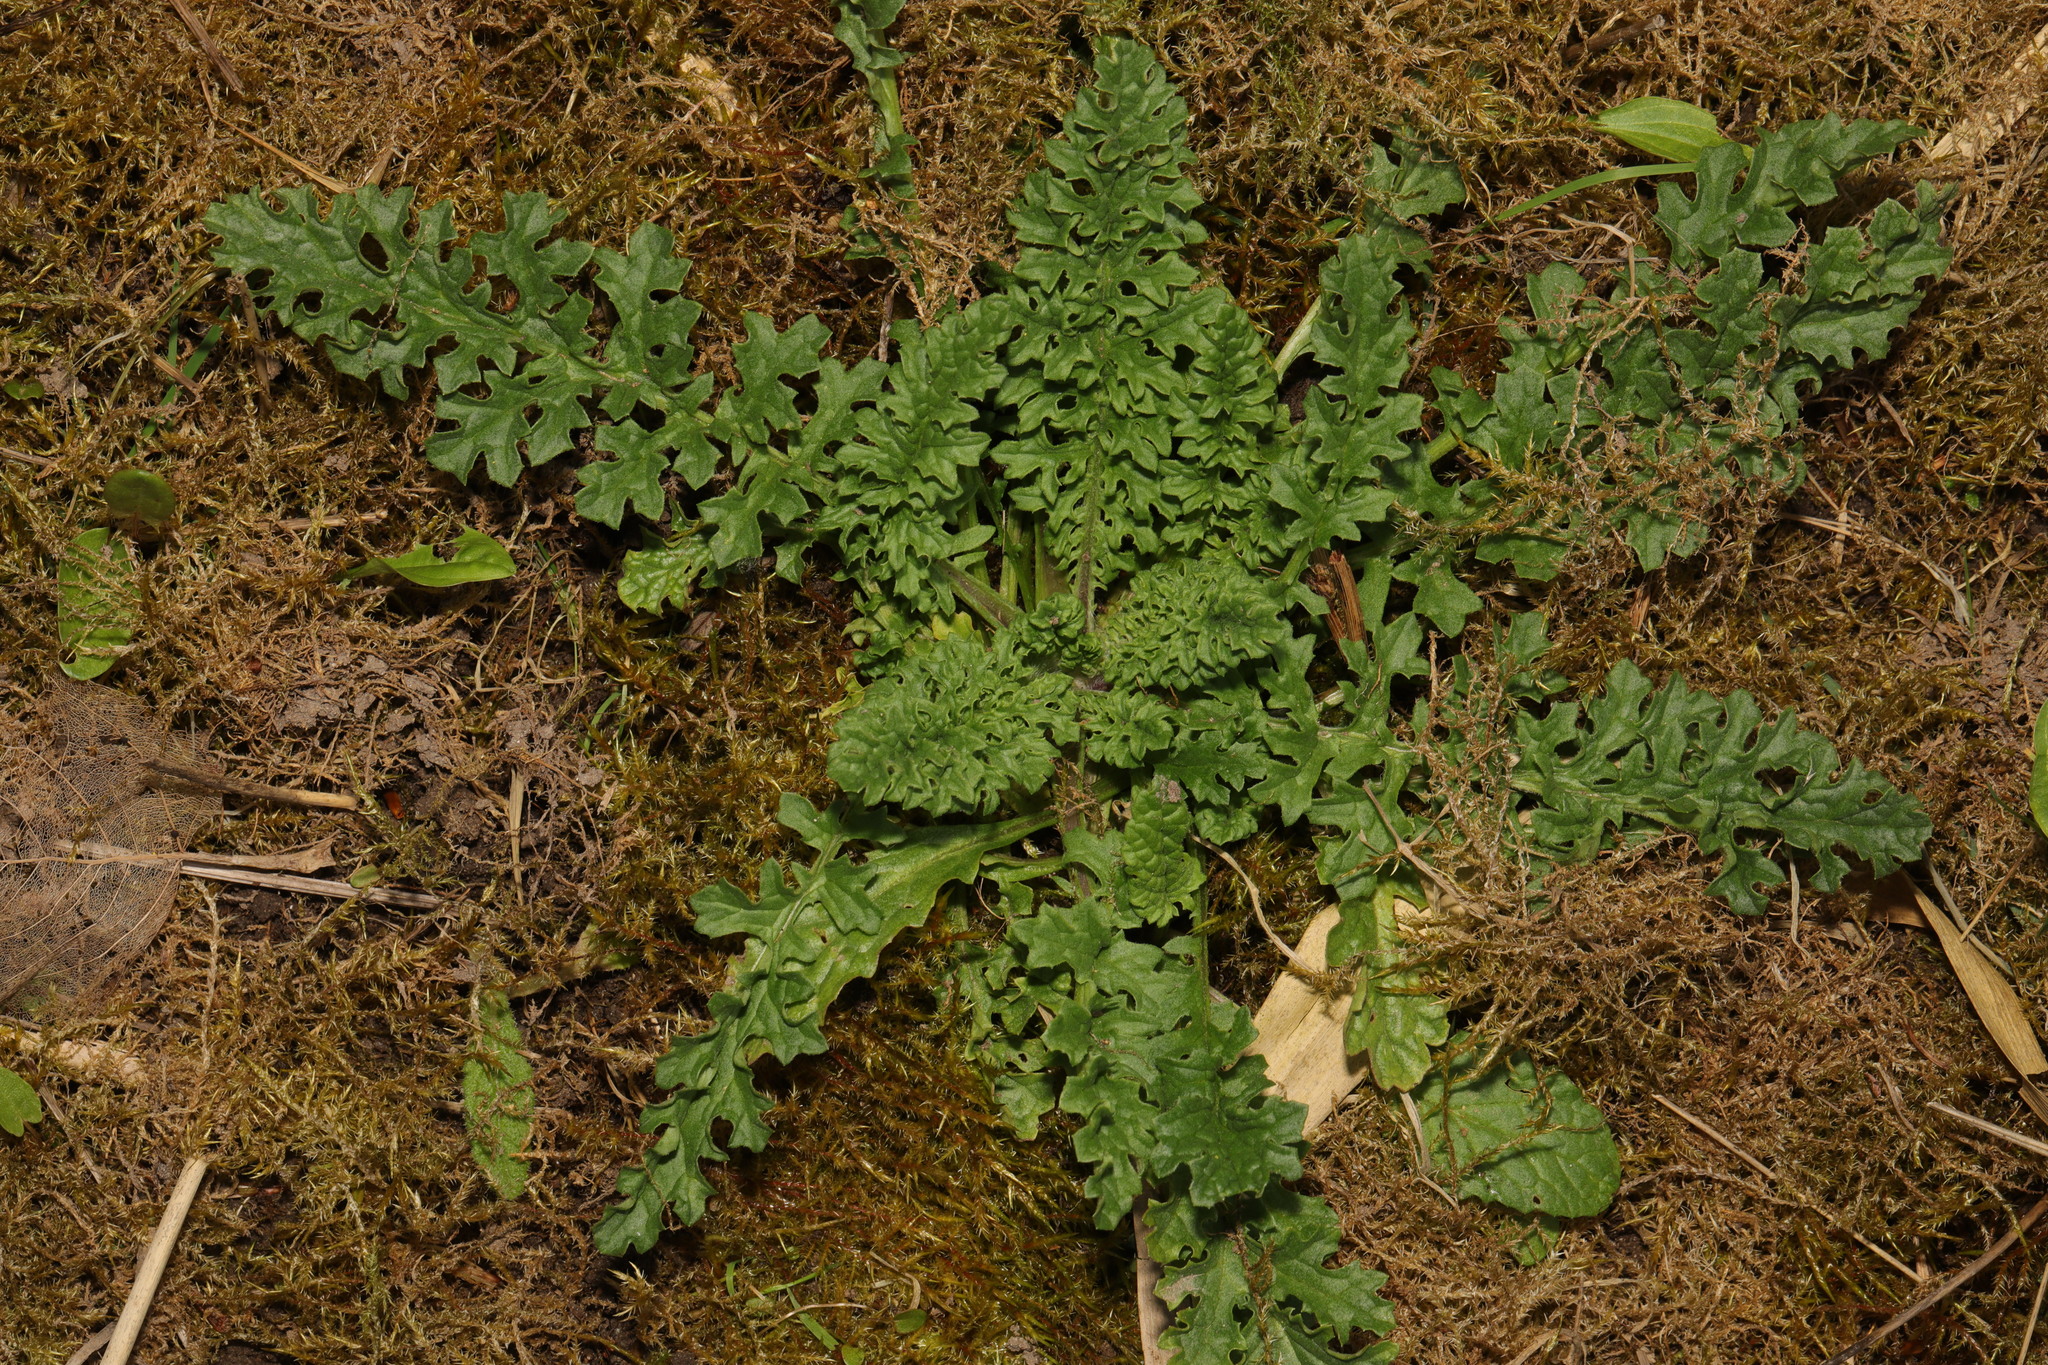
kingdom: Plantae
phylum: Tracheophyta
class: Magnoliopsida
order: Asterales
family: Asteraceae
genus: Jacobaea
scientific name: Jacobaea vulgaris
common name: Stinking willie
